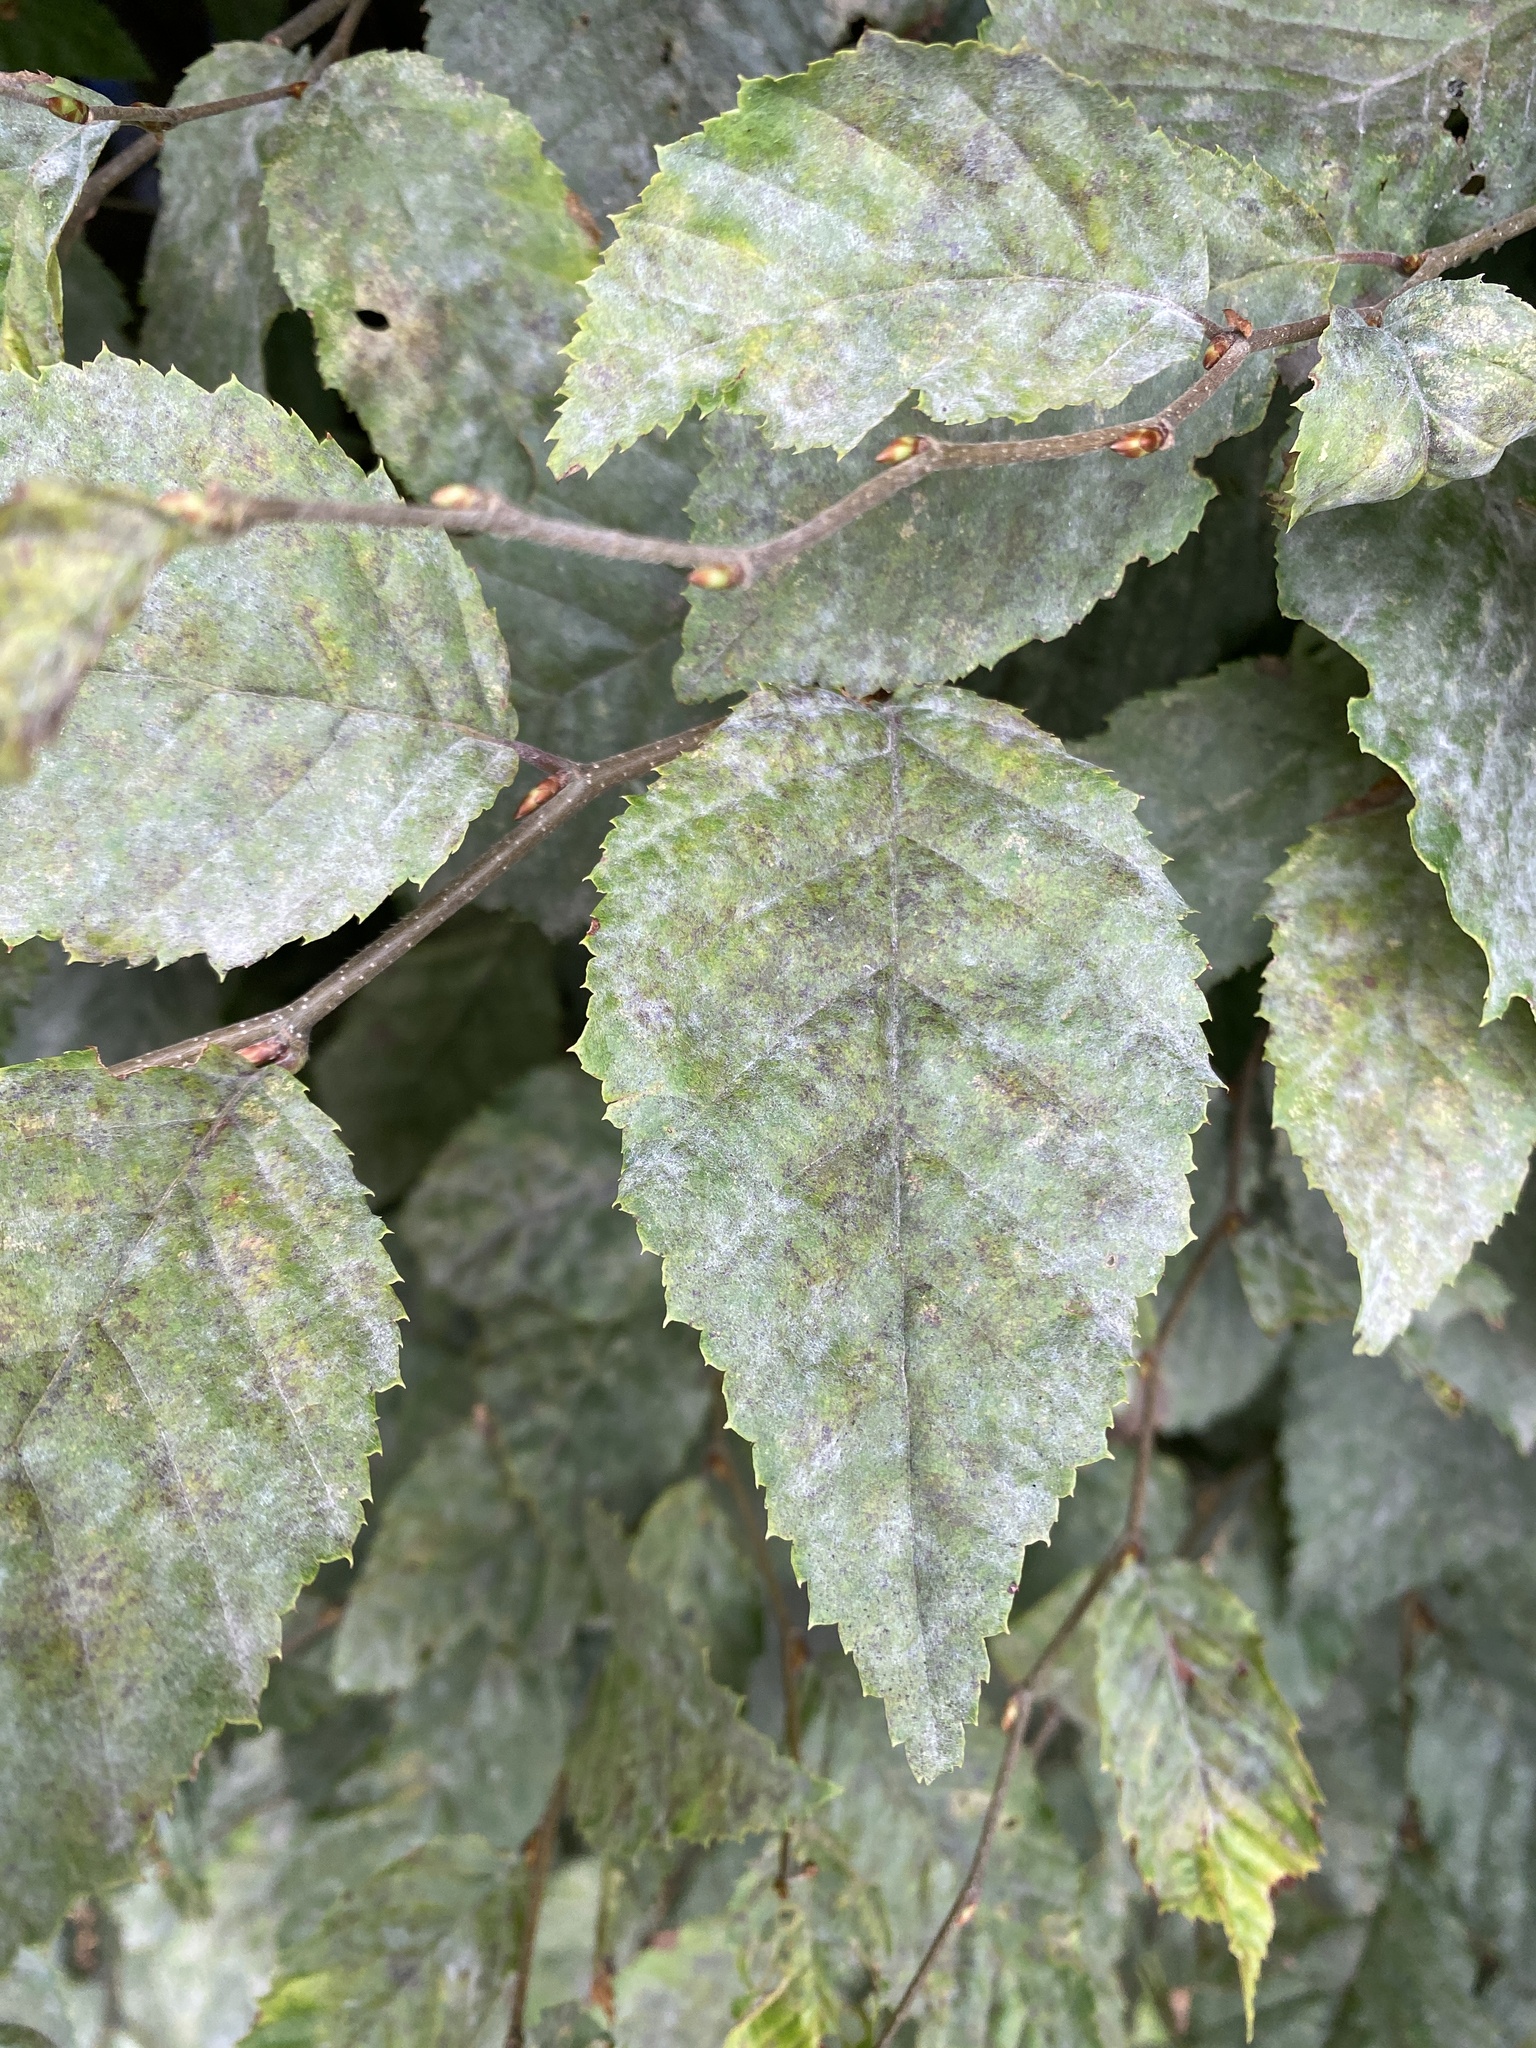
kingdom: Plantae
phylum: Tracheophyta
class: Magnoliopsida
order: Fagales
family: Betulaceae
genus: Carpinus
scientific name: Carpinus betulus
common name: Hornbeam
